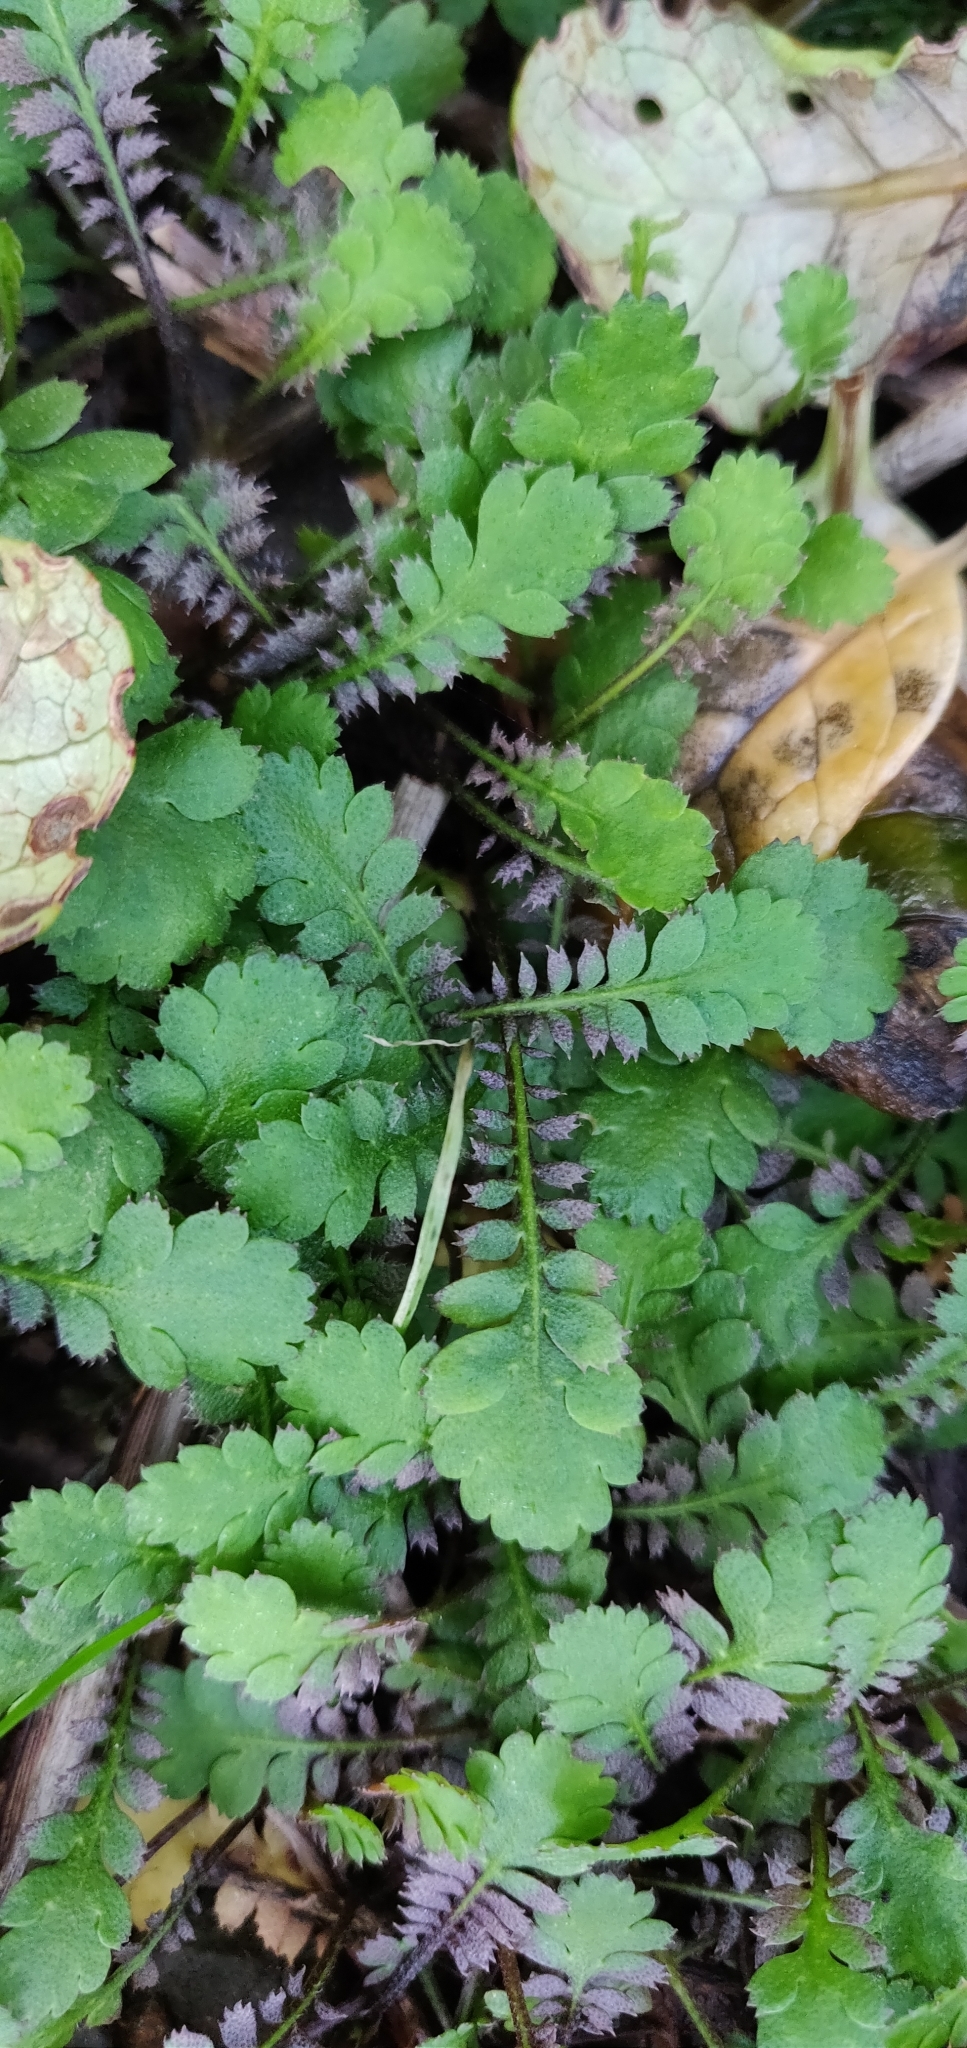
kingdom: Plantae
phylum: Tracheophyta
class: Magnoliopsida
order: Asterales
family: Asteraceae
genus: Leptinella
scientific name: Leptinella squalida
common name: New zealand brass-buttons
